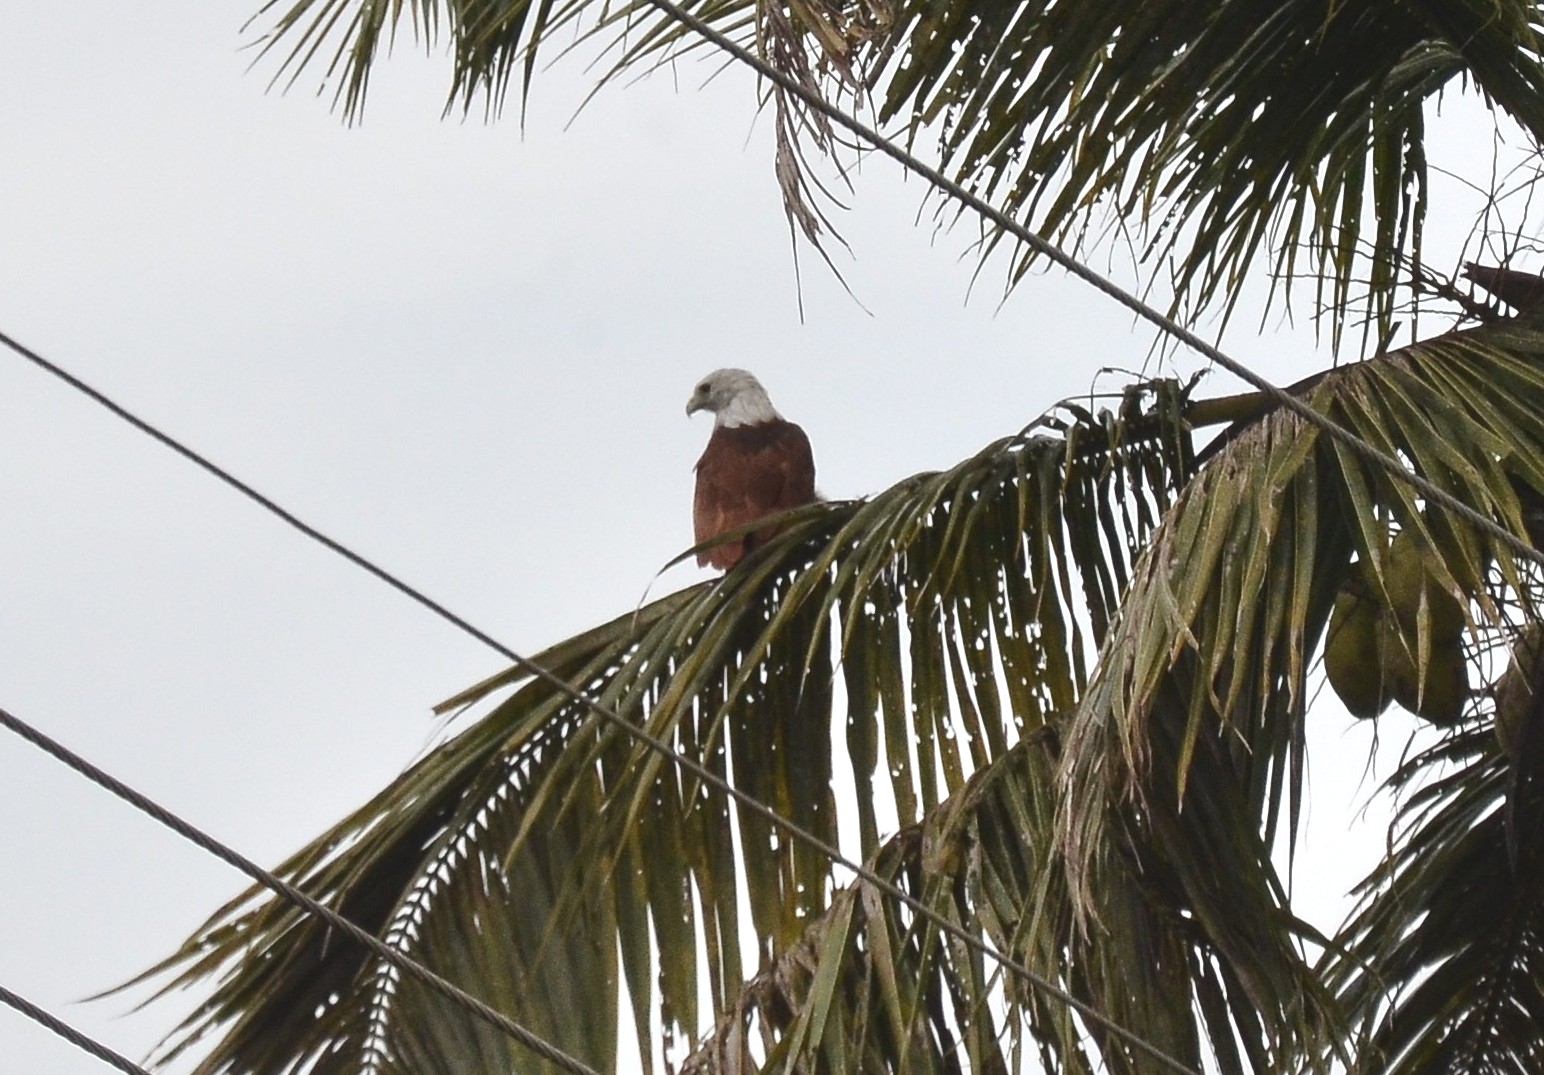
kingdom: Animalia
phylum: Chordata
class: Aves
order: Accipitriformes
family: Accipitridae
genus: Haliastur
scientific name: Haliastur indus
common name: Brahminy kite
